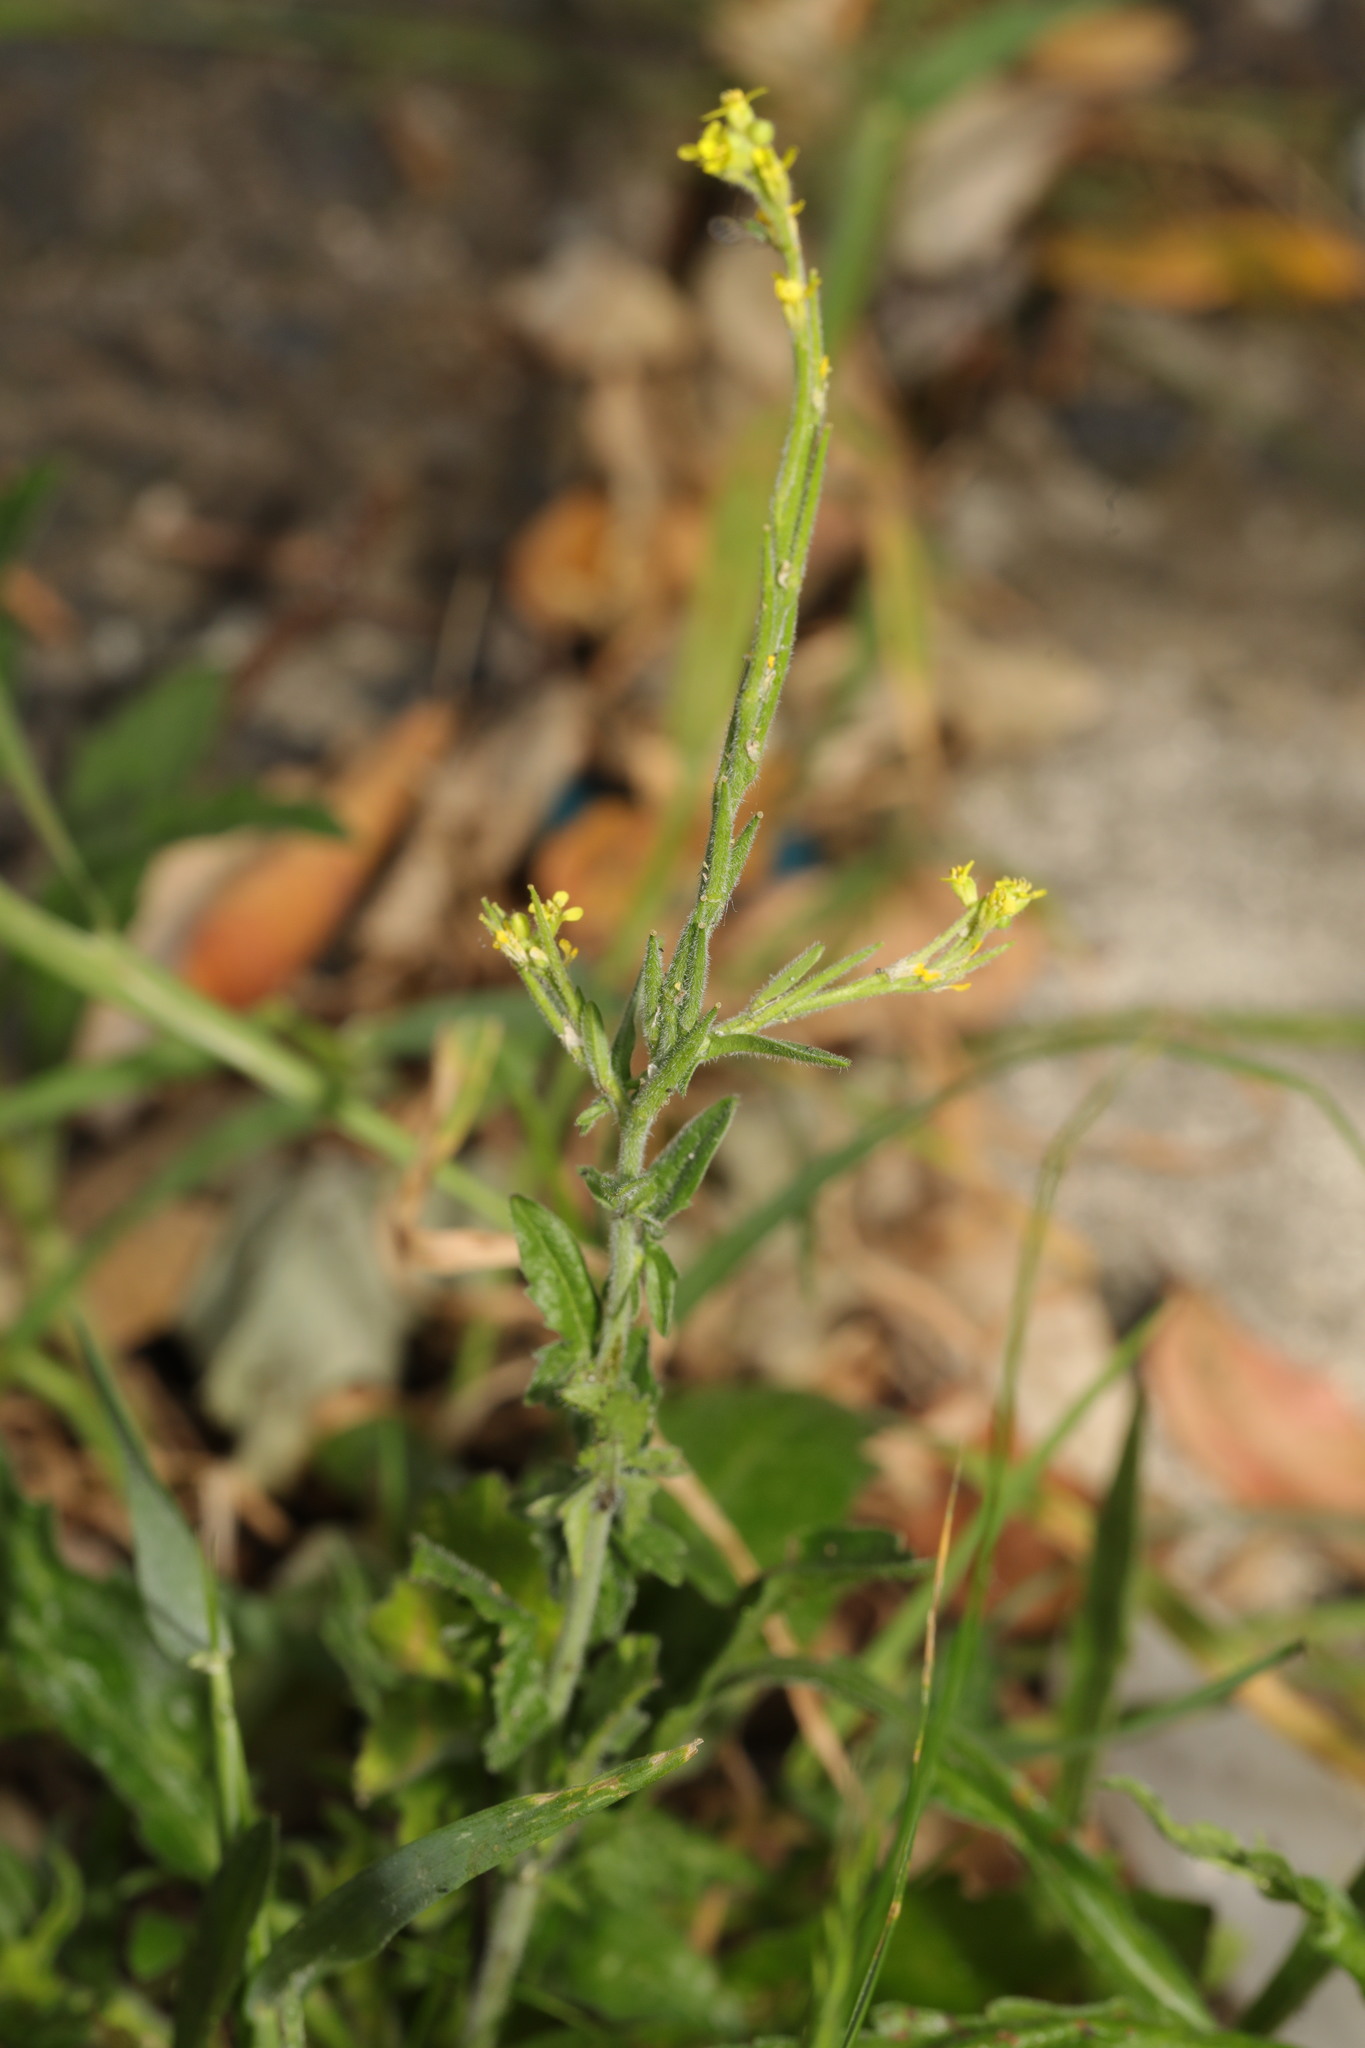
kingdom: Plantae
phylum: Tracheophyta
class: Magnoliopsida
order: Brassicales
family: Brassicaceae
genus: Sisymbrium
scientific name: Sisymbrium officinale
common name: Hedge mustard
